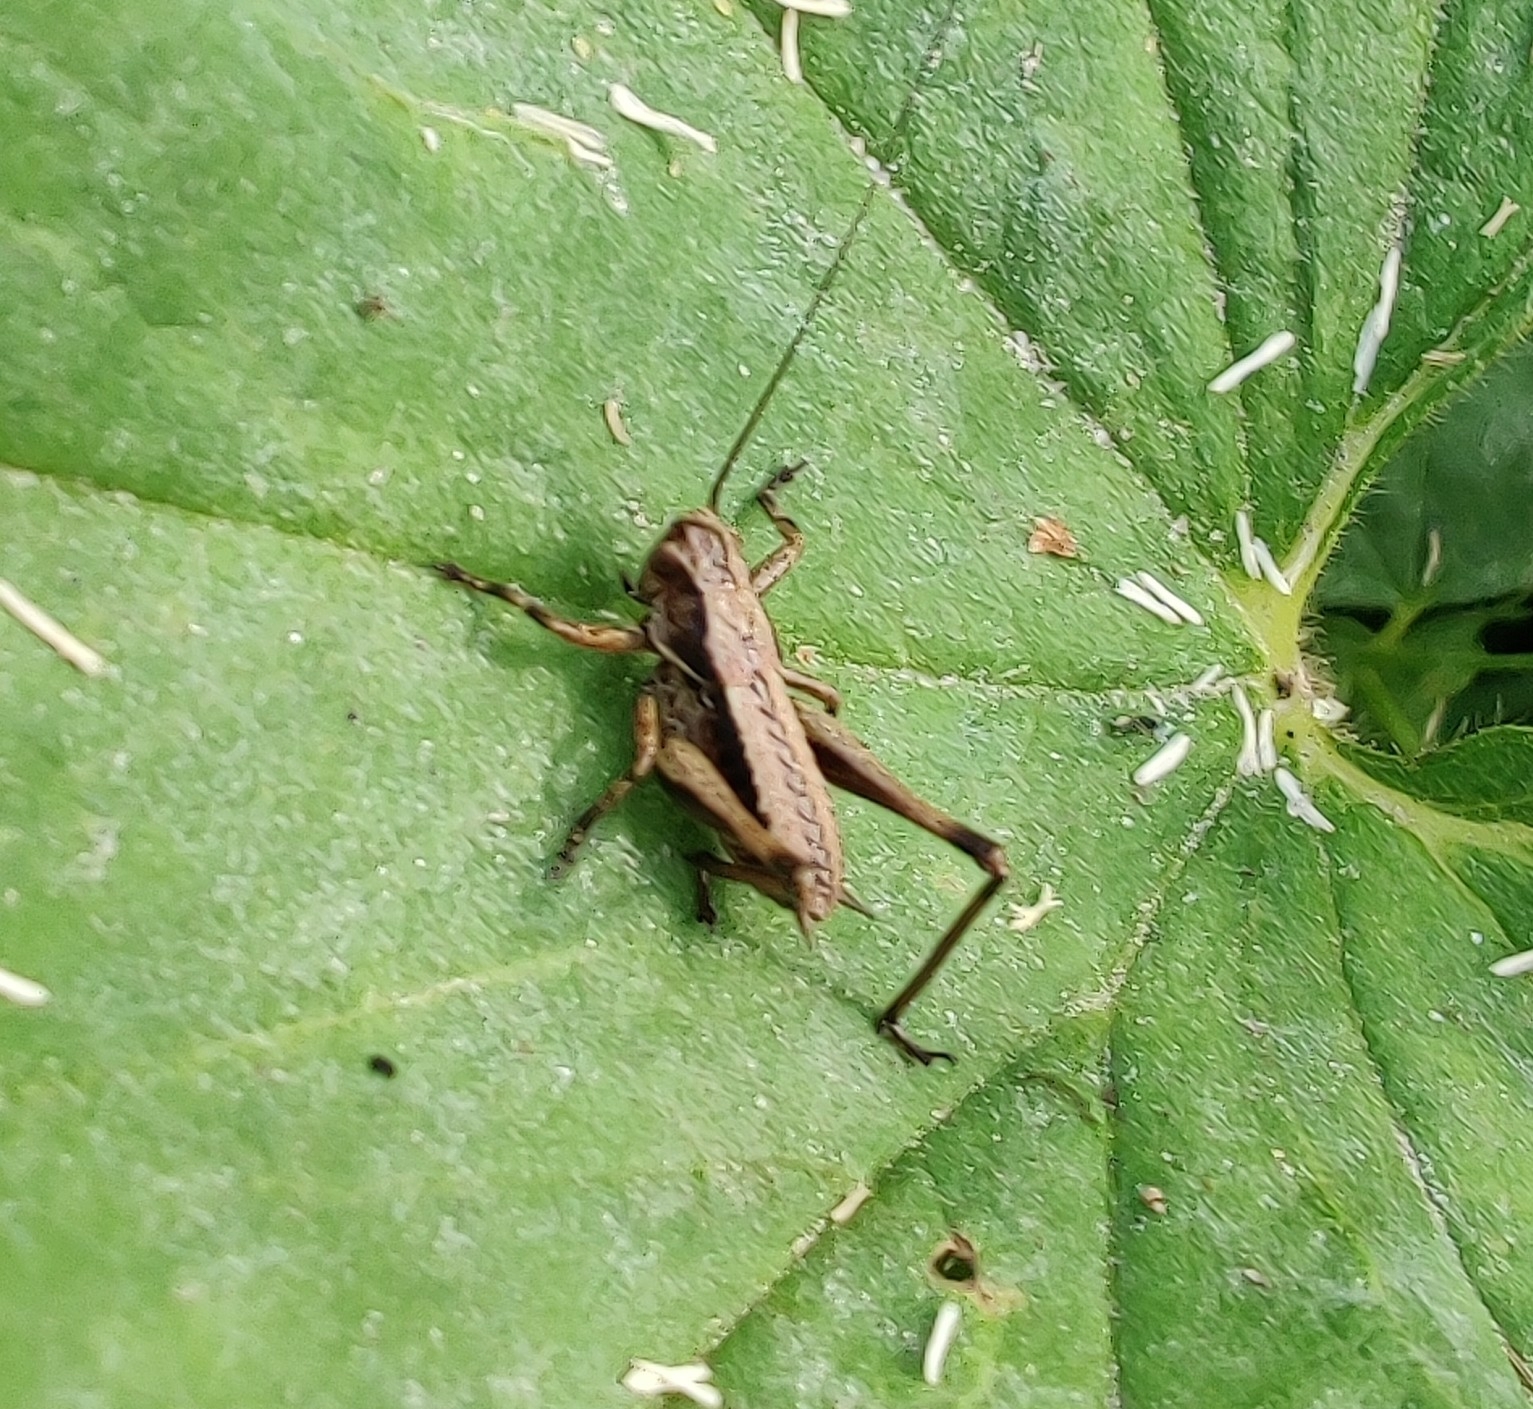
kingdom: Animalia
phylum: Arthropoda
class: Insecta
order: Orthoptera
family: Tettigoniidae
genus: Pholidoptera
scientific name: Pholidoptera griseoaptera
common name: Dark bush-cricket
